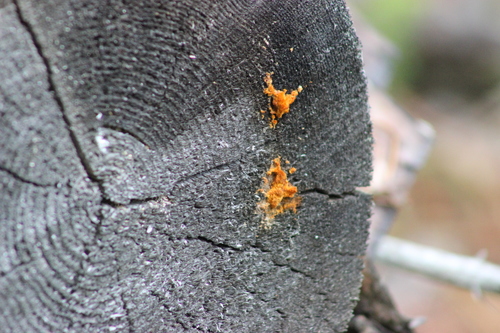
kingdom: Fungi
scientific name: Fungi
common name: Fungi
